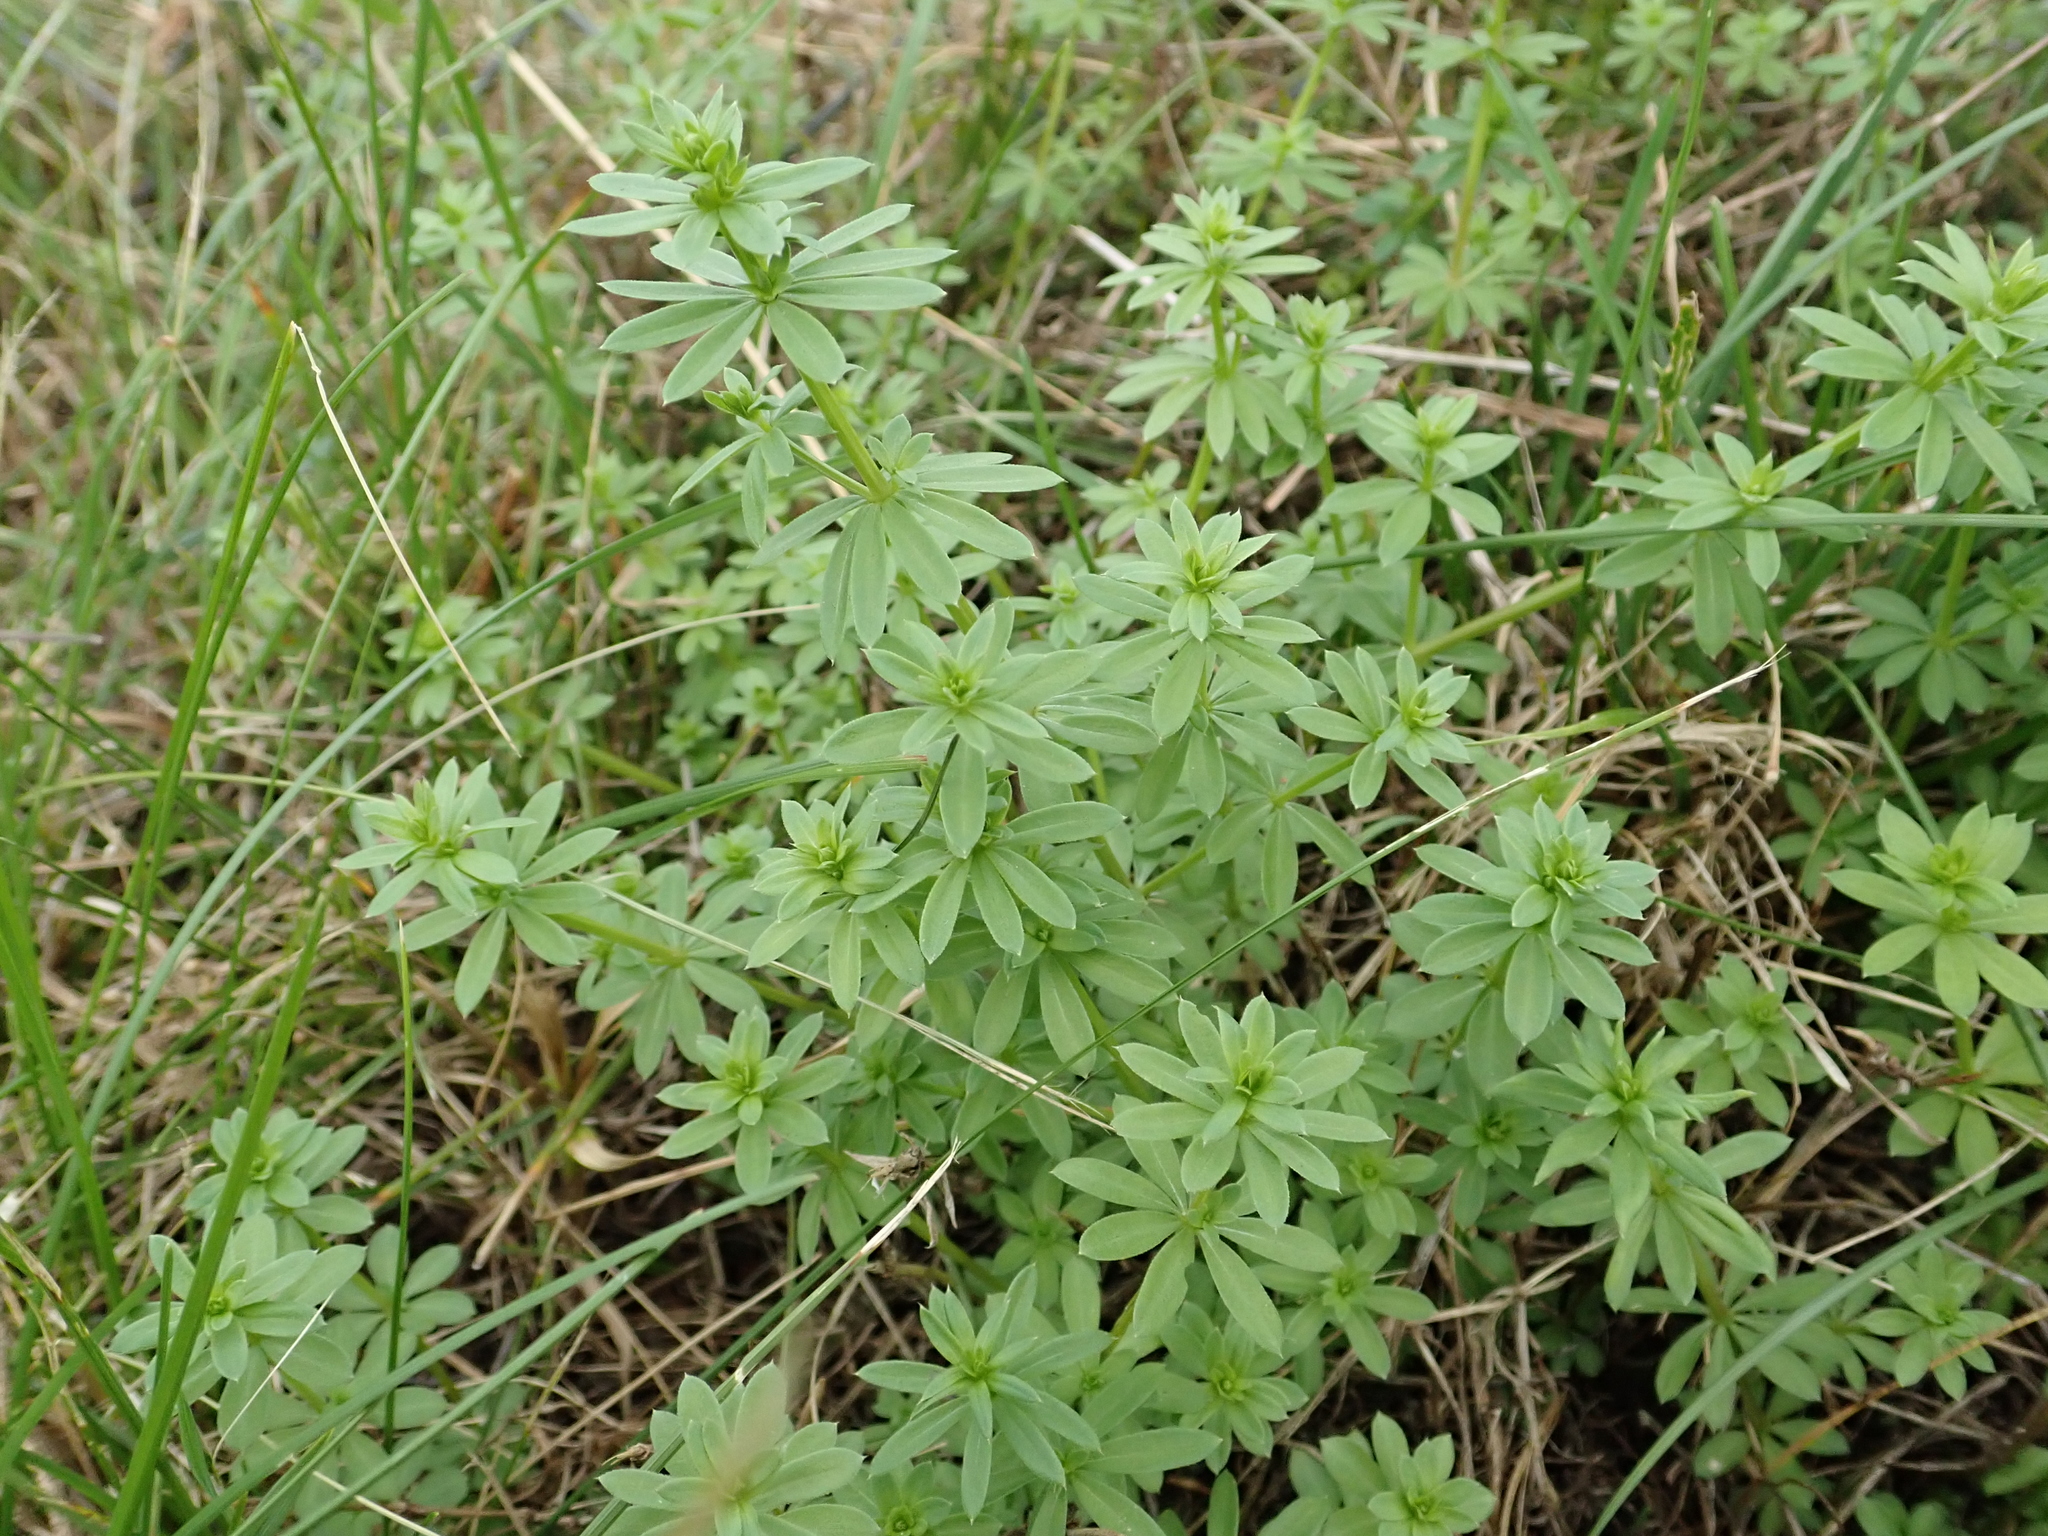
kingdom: Plantae
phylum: Tracheophyta
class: Magnoliopsida
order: Gentianales
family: Rubiaceae
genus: Galium
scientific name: Galium mollugo
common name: Hedge bedstraw
